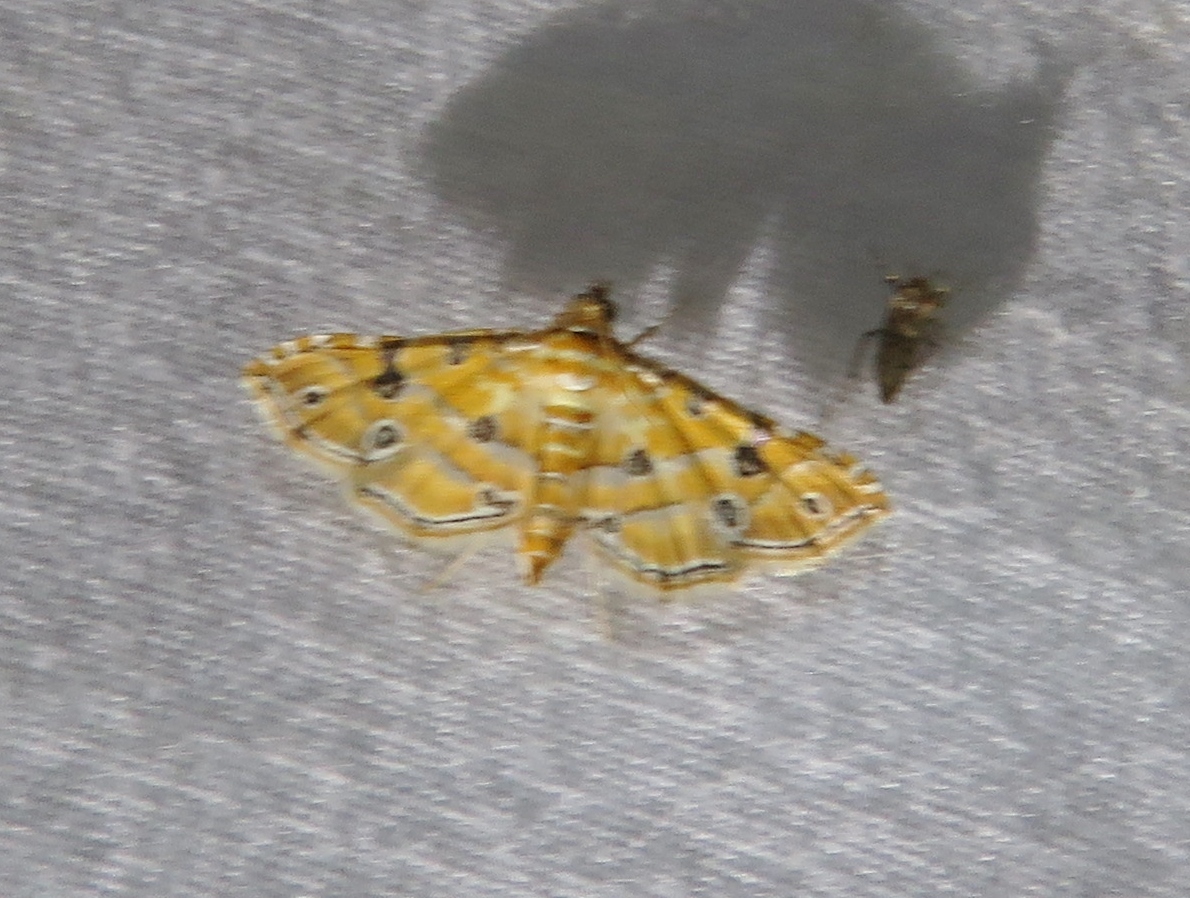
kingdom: Animalia
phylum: Arthropoda
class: Insecta
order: Lepidoptera
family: Crambidae
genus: Ommatospila
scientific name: Ommatospila narcaeusalis
